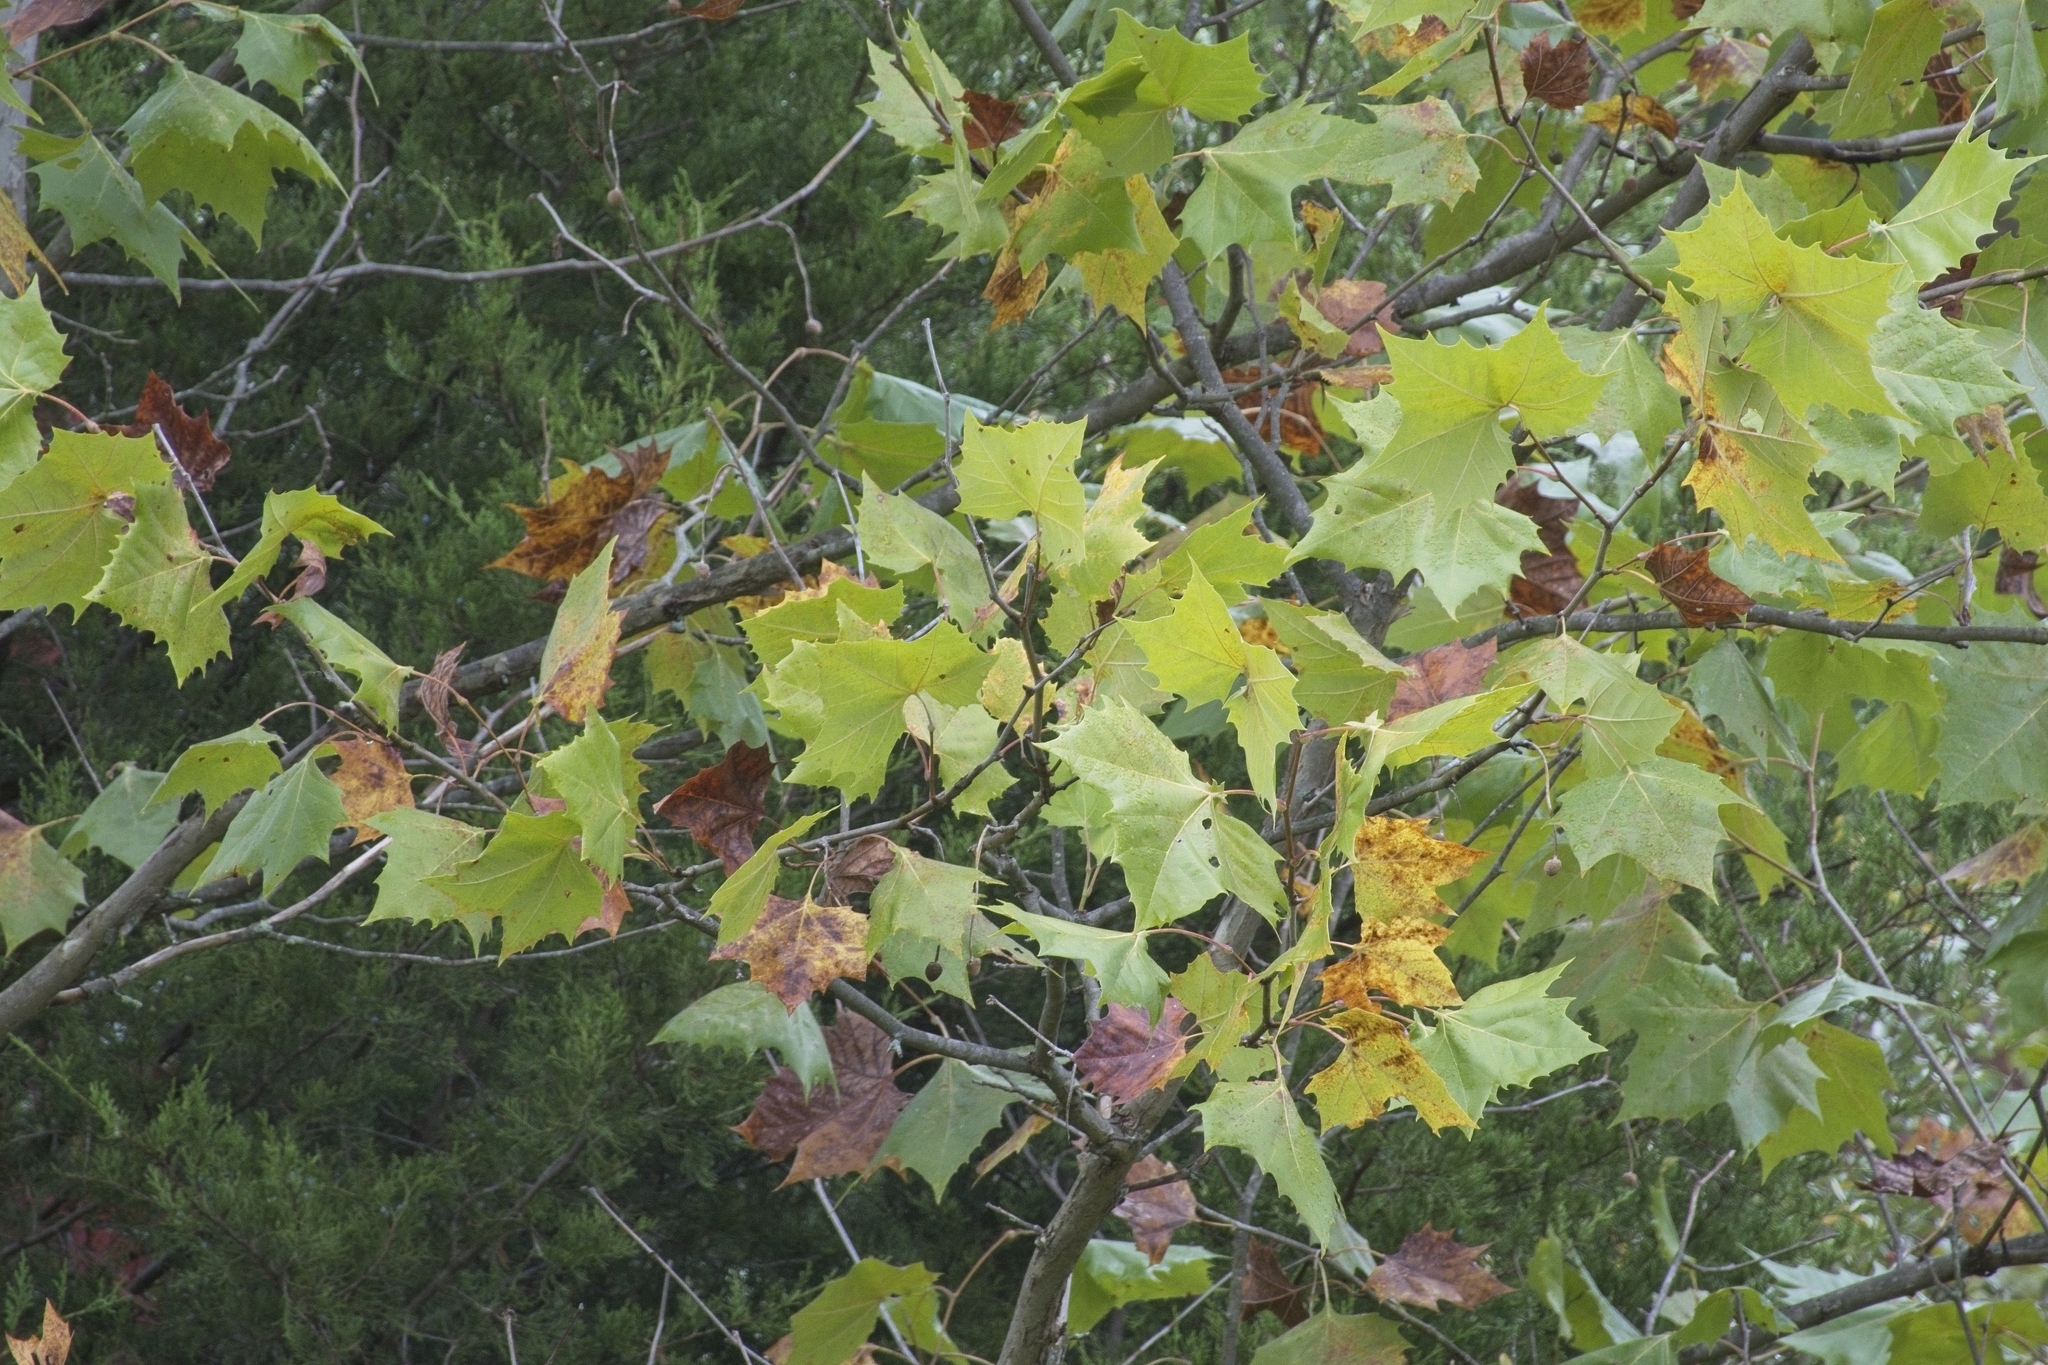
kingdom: Plantae
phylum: Tracheophyta
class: Magnoliopsida
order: Proteales
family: Platanaceae
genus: Platanus
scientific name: Platanus occidentalis
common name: American sycamore
